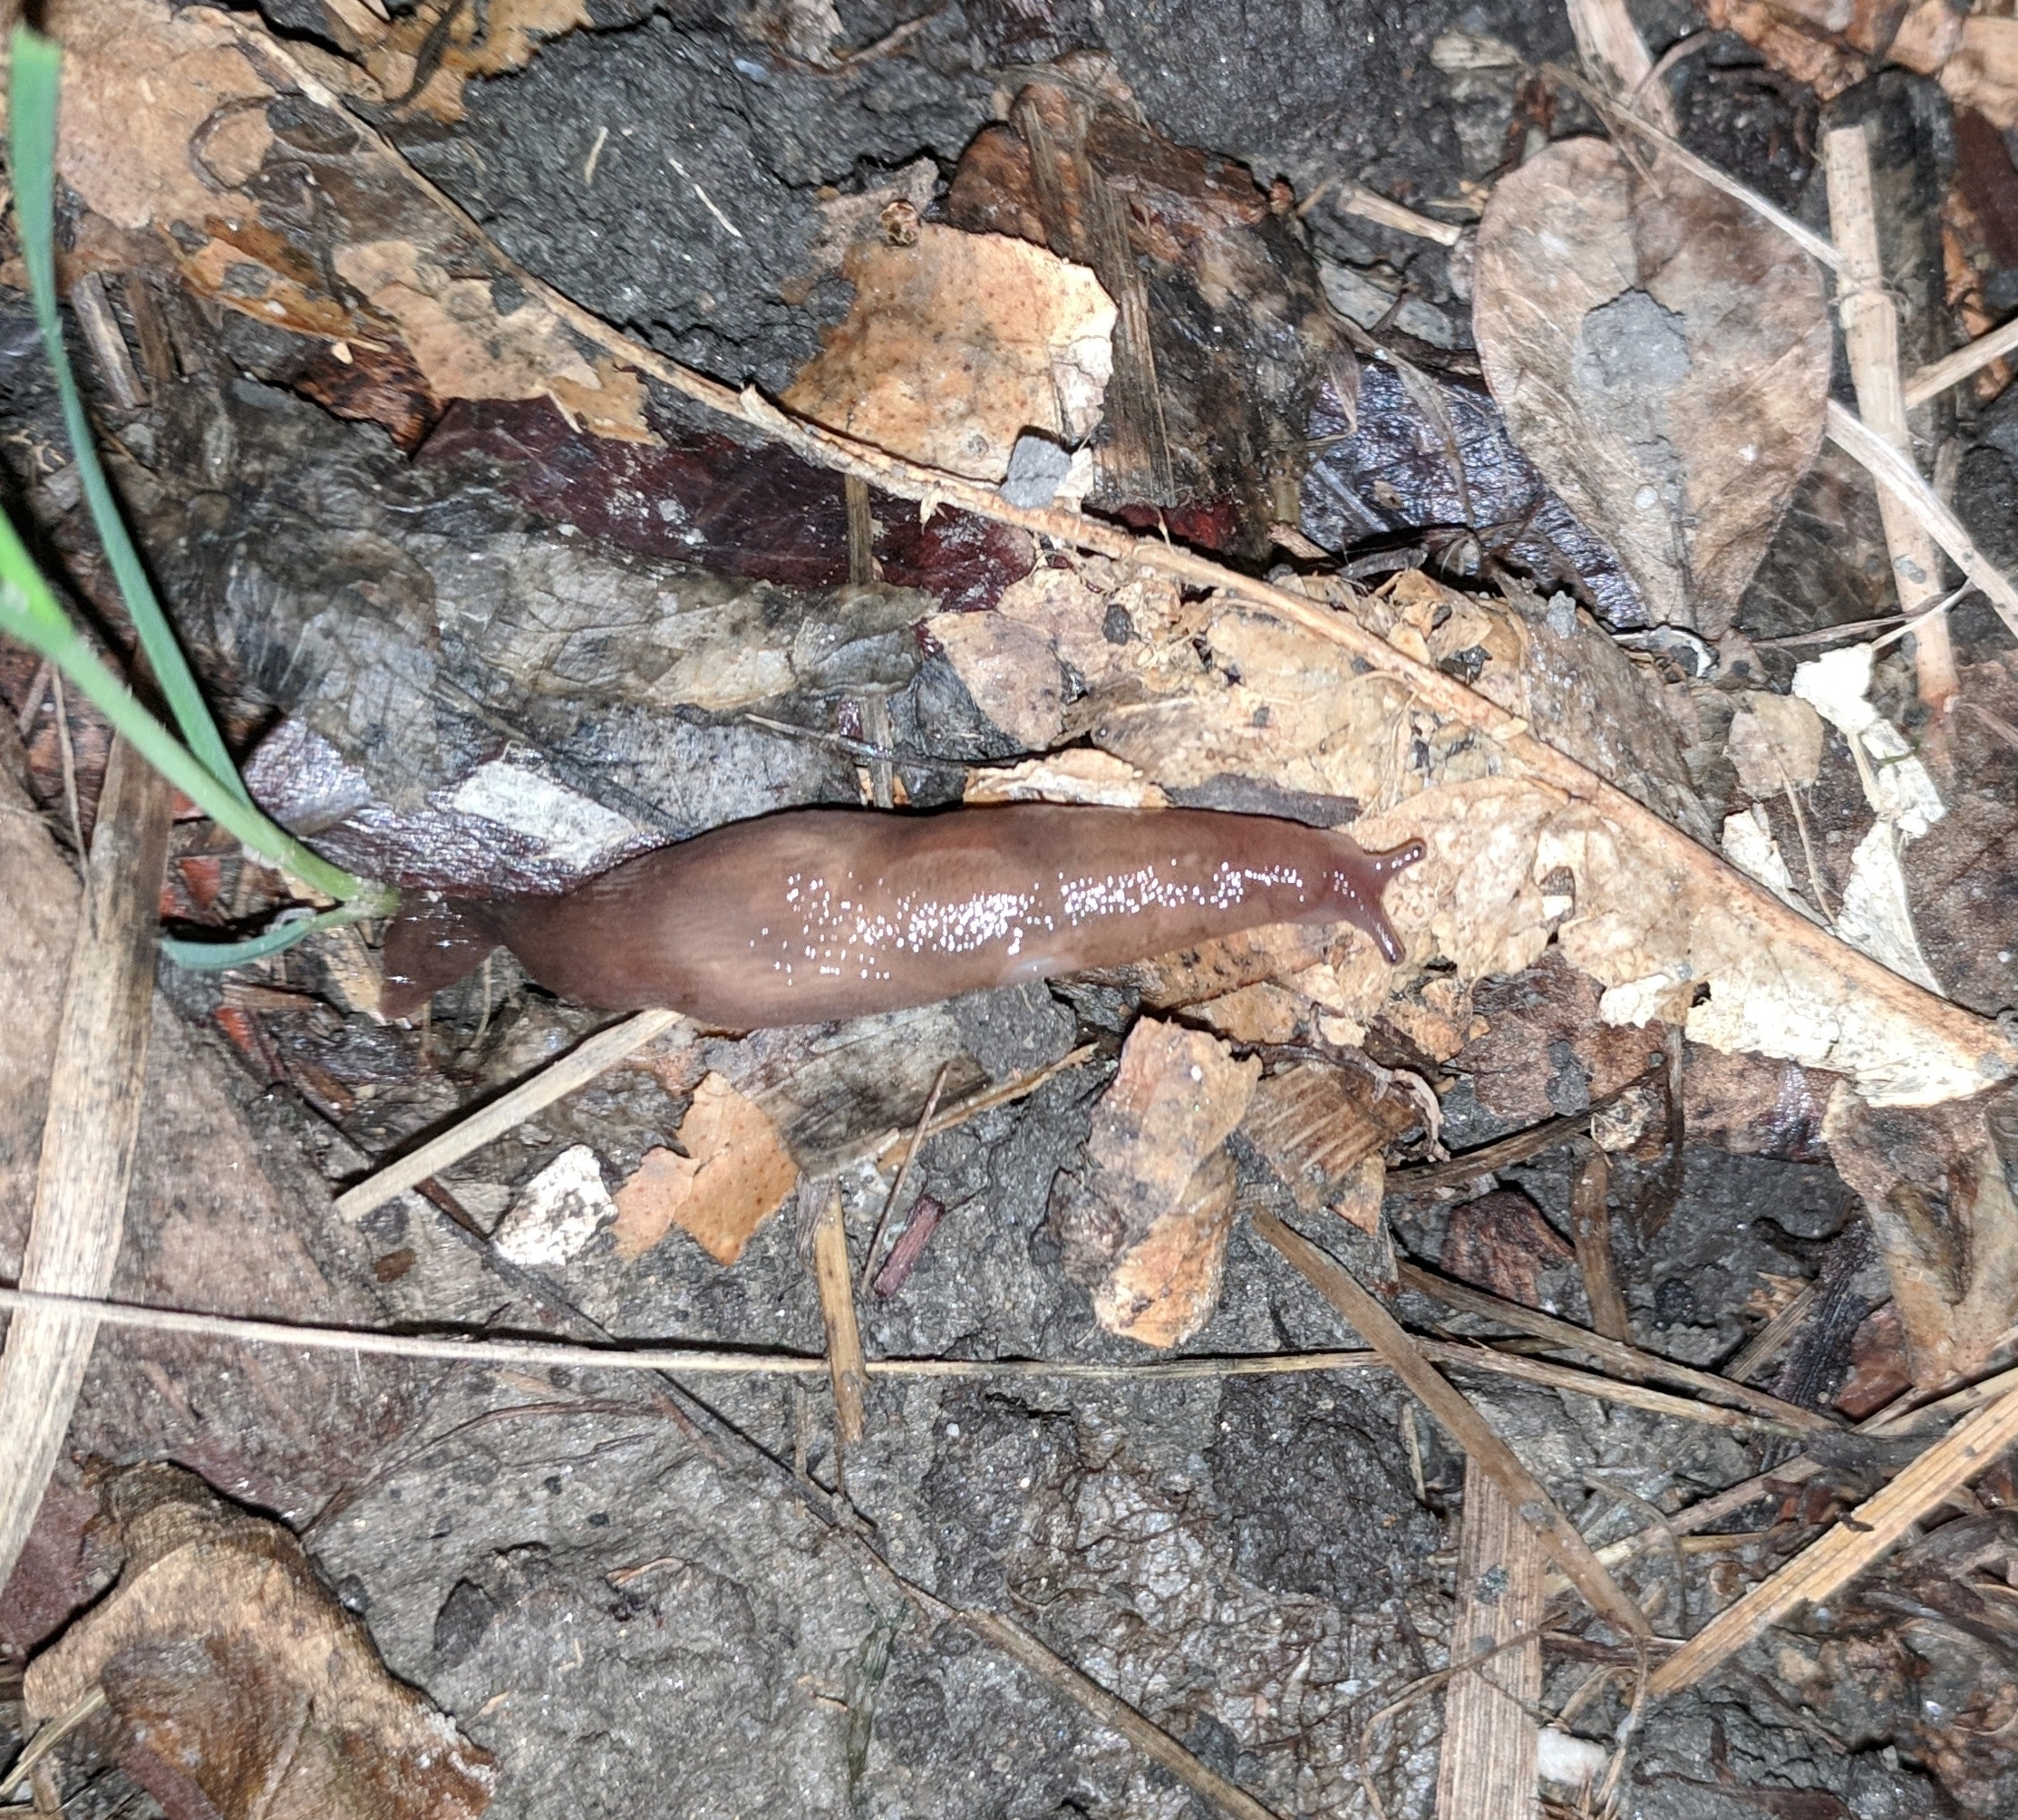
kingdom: Animalia
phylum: Mollusca
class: Gastropoda
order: Stylommatophora
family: Limacidae
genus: Ambigolimax
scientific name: Ambigolimax
